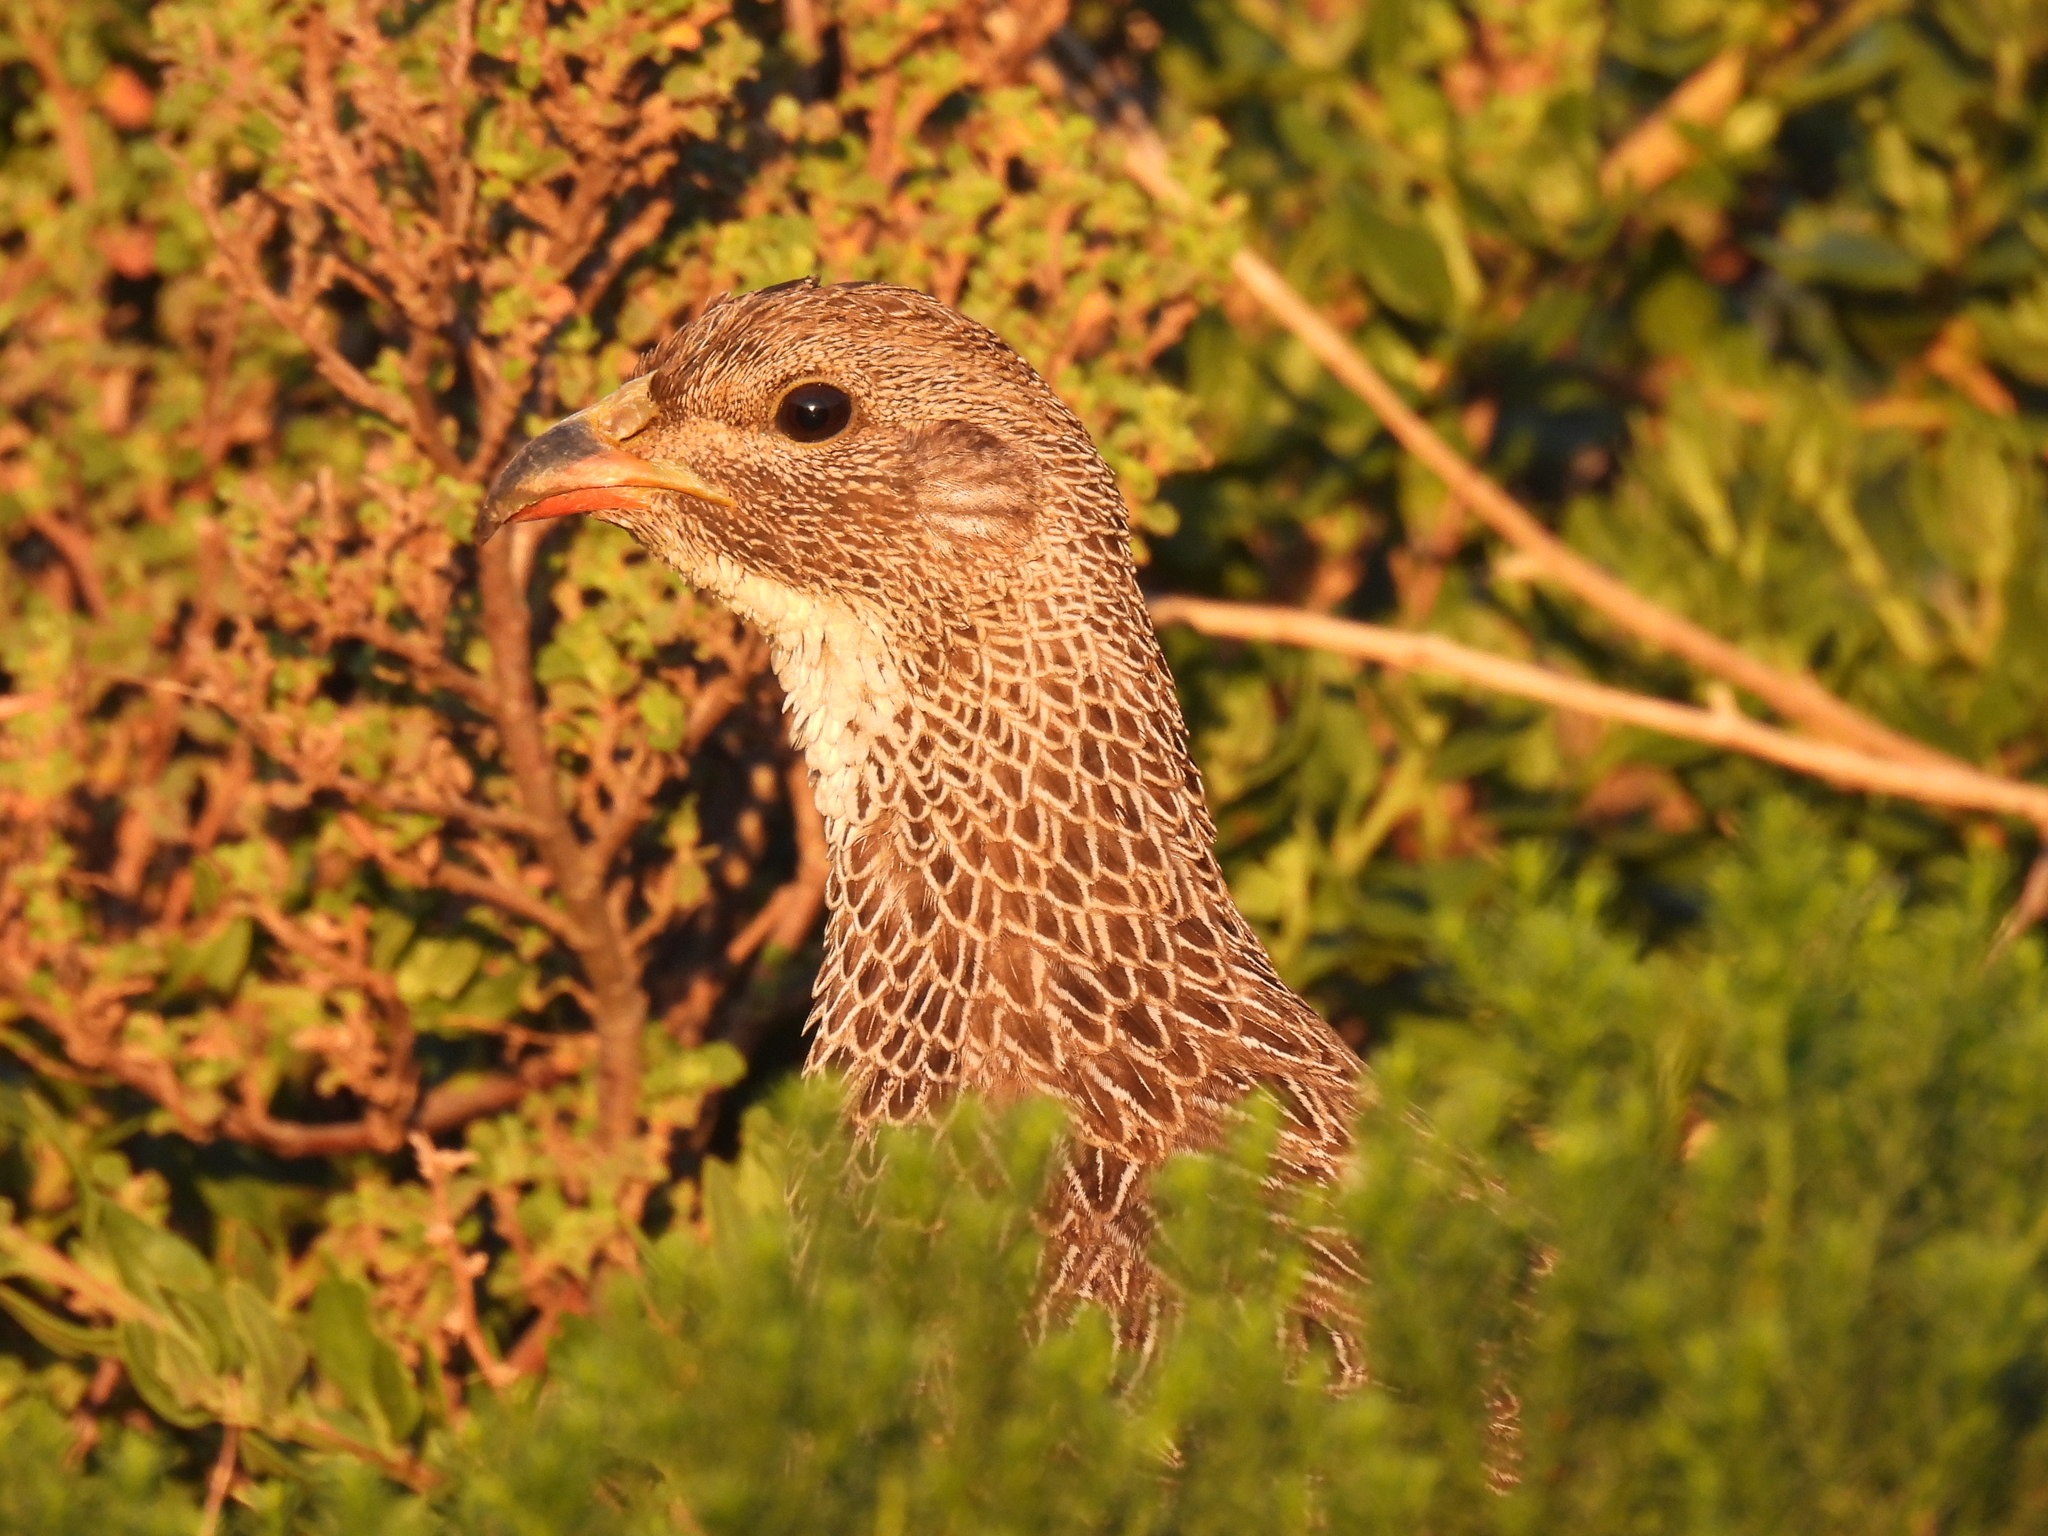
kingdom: Animalia
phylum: Chordata
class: Aves
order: Galliformes
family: Phasianidae
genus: Pternistis
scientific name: Pternistis capensis
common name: Cape spurfowl
